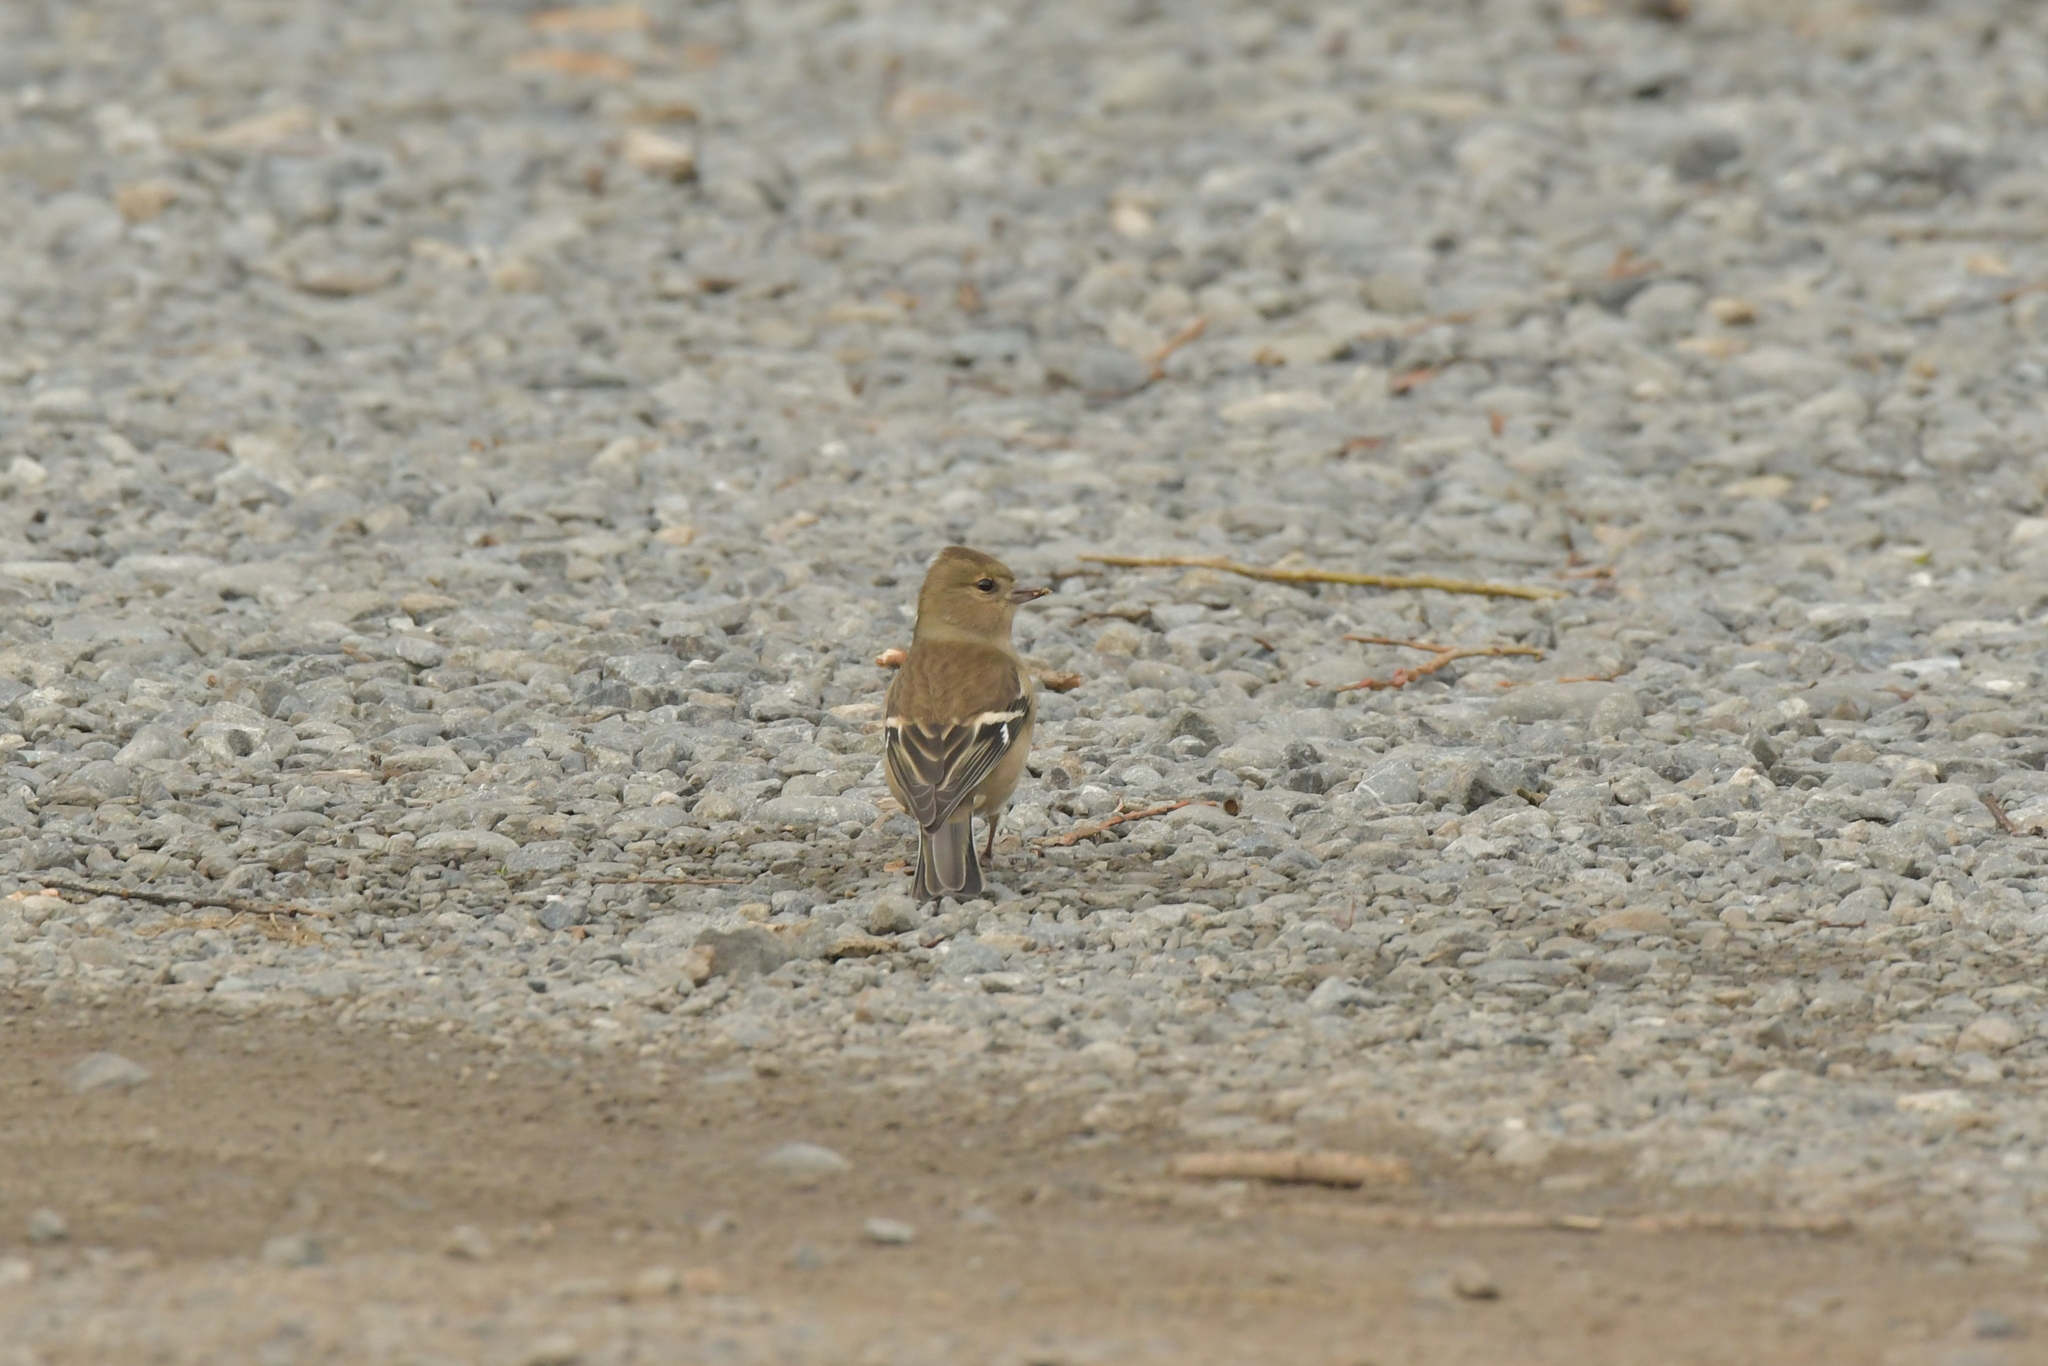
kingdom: Animalia
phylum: Chordata
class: Aves
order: Passeriformes
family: Fringillidae
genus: Fringilla
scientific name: Fringilla coelebs
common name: Common chaffinch
